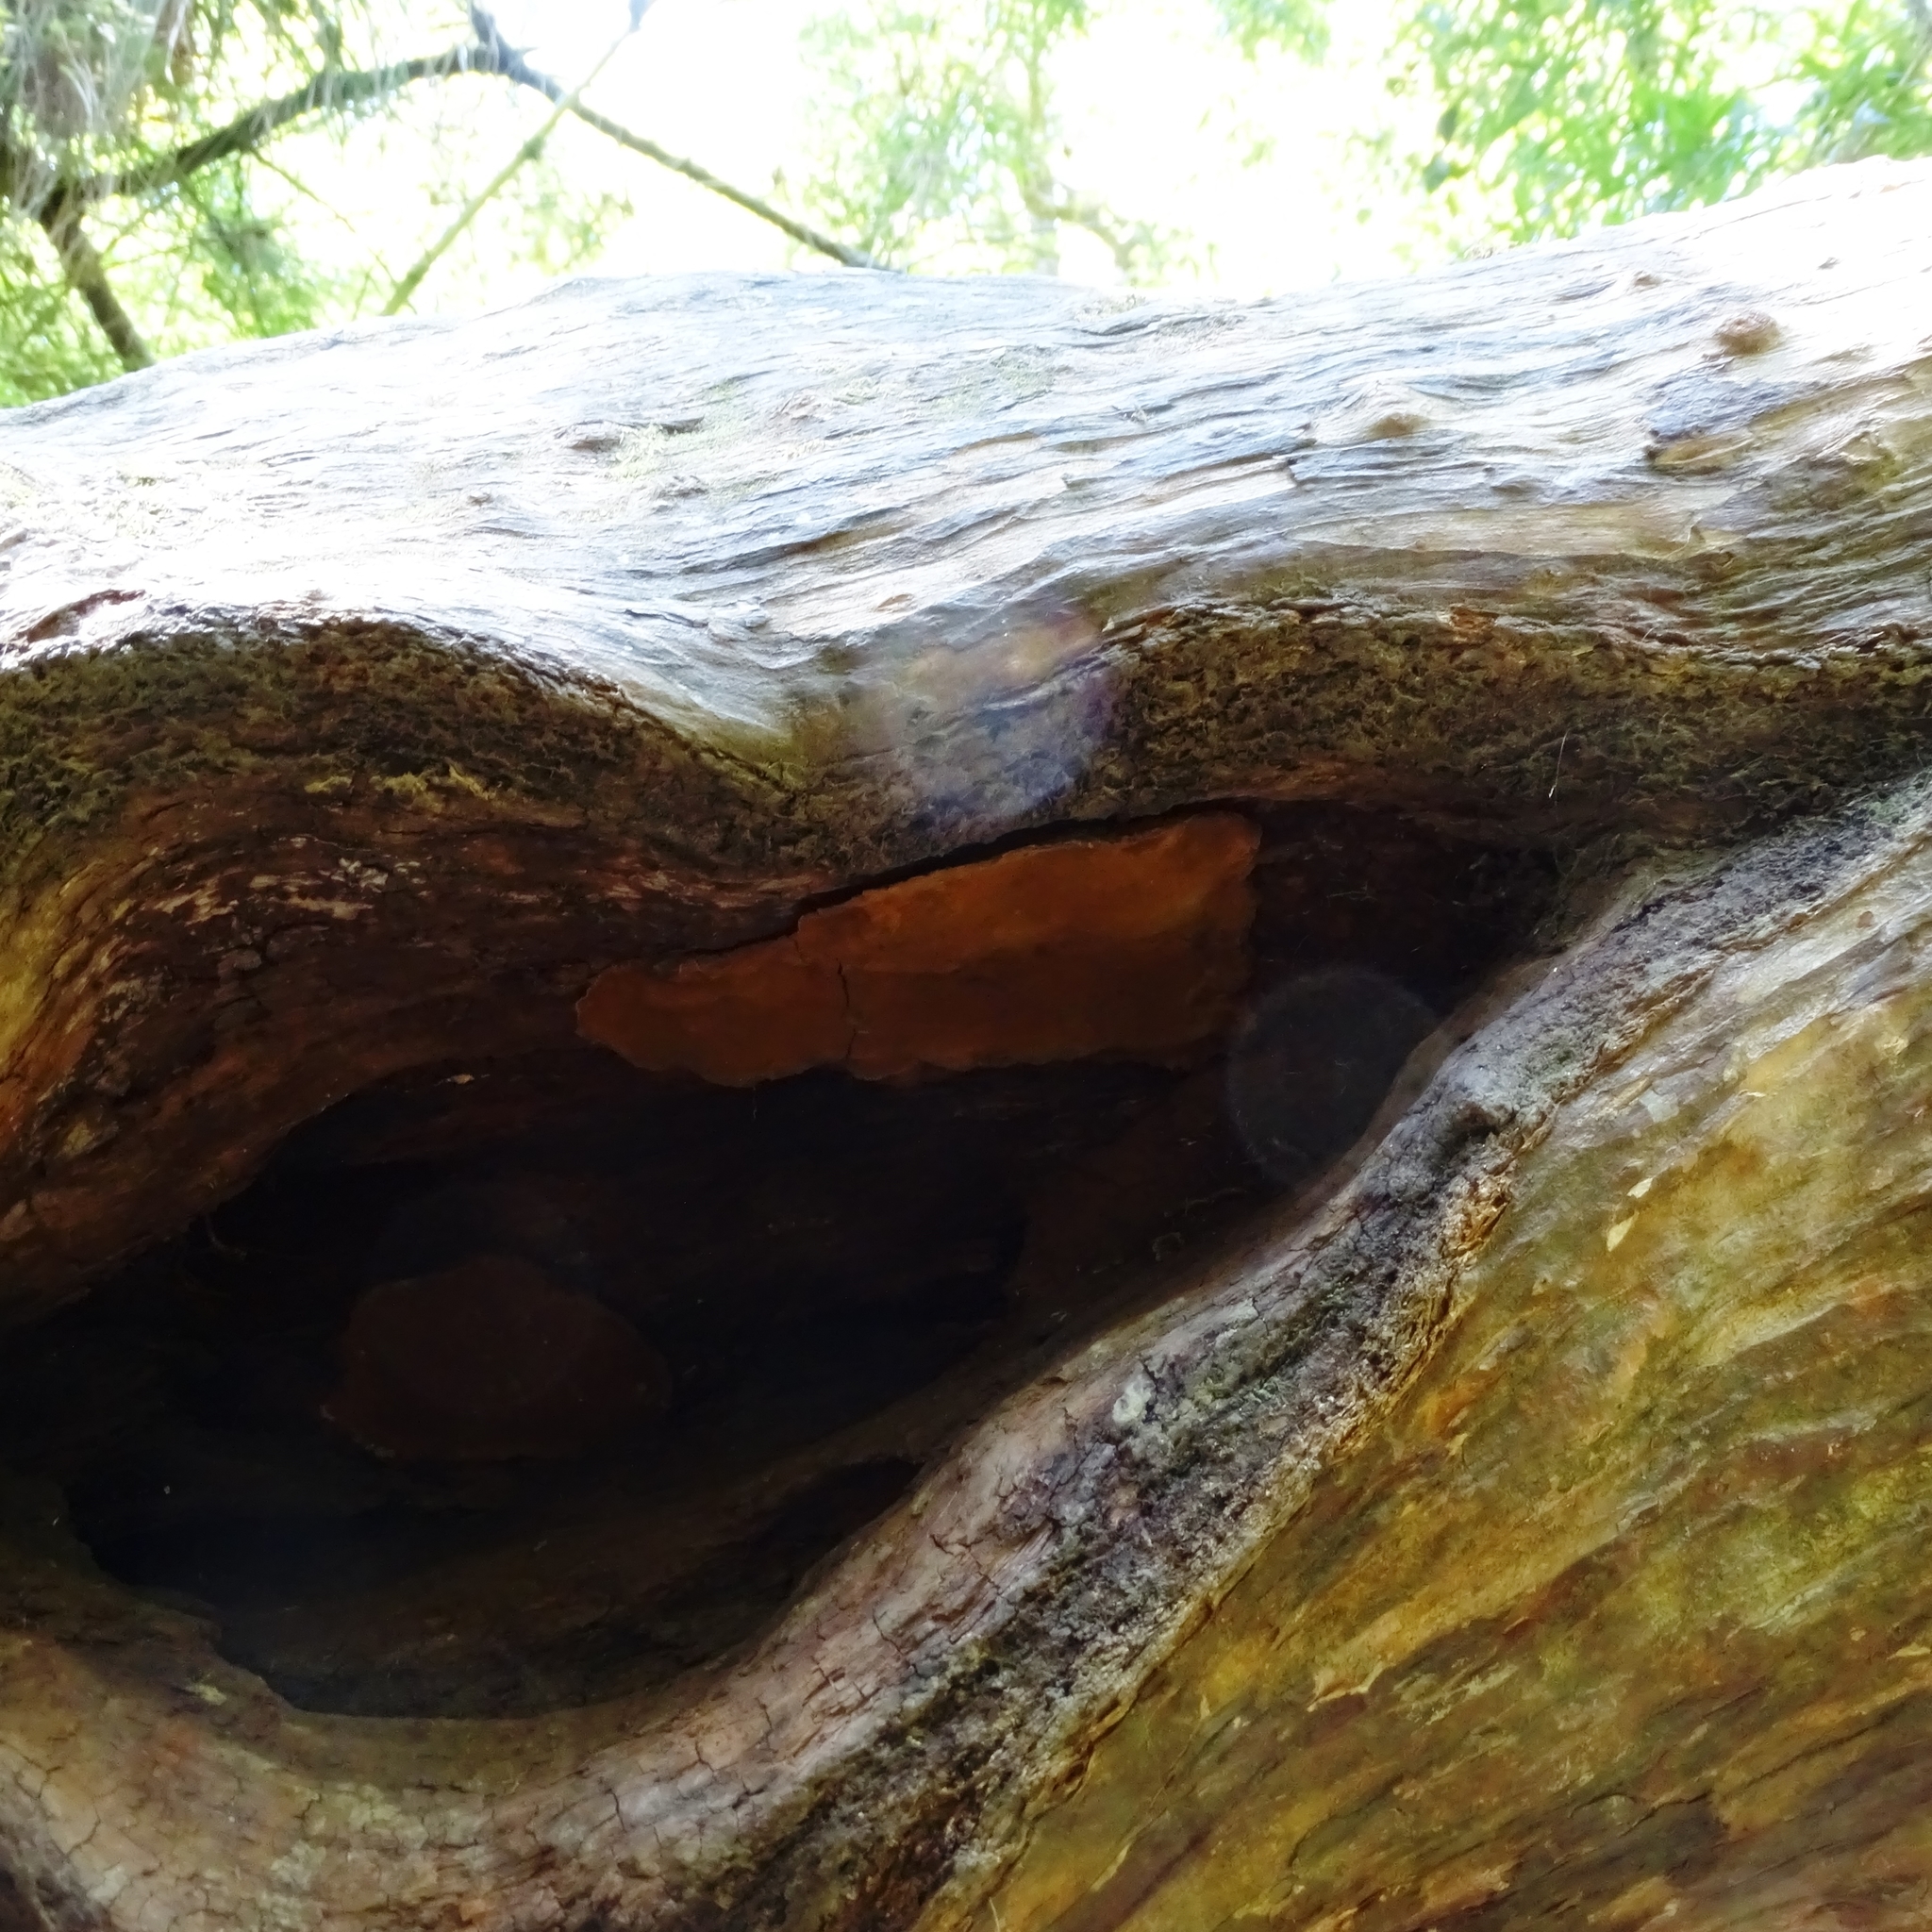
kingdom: Fungi
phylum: Basidiomycota
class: Agaricomycetes
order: Hymenochaetales
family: Hymenochaetaceae
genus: Fuscoporia
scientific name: Fuscoporia senex
